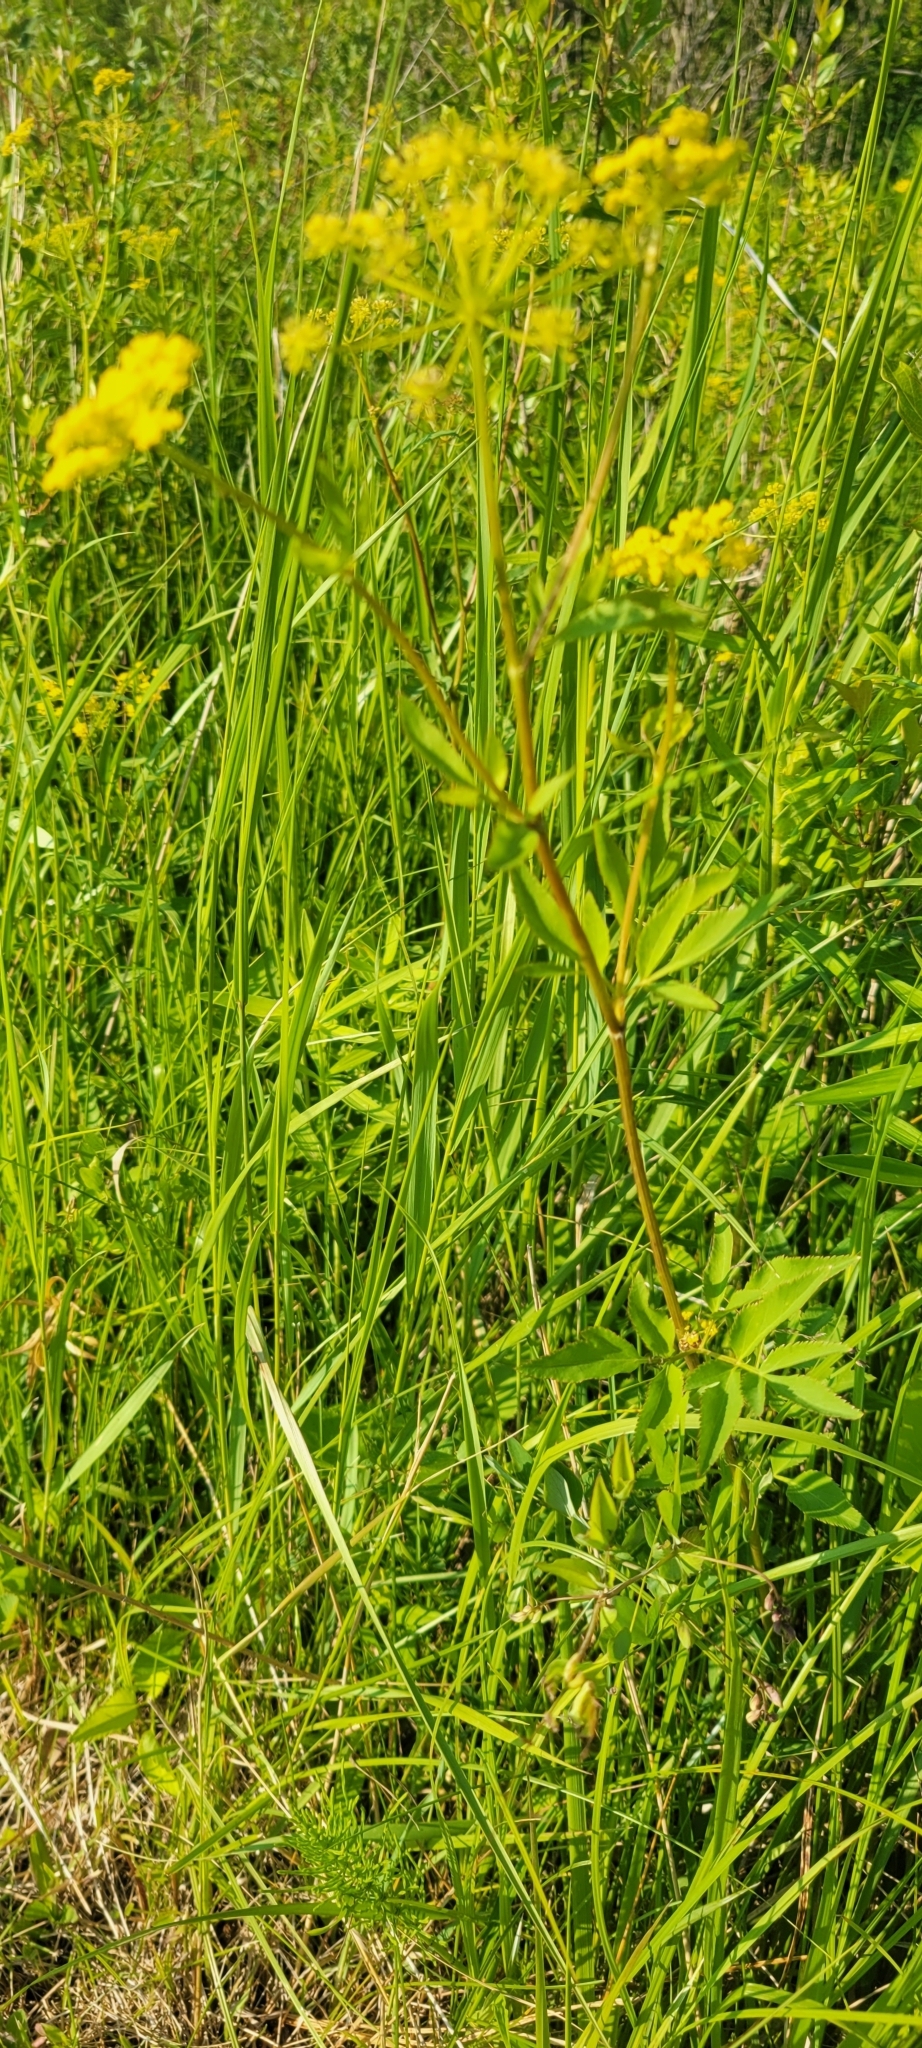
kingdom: Plantae
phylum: Tracheophyta
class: Magnoliopsida
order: Apiales
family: Apiaceae
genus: Zizia
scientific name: Zizia aurea
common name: Golden alexanders
